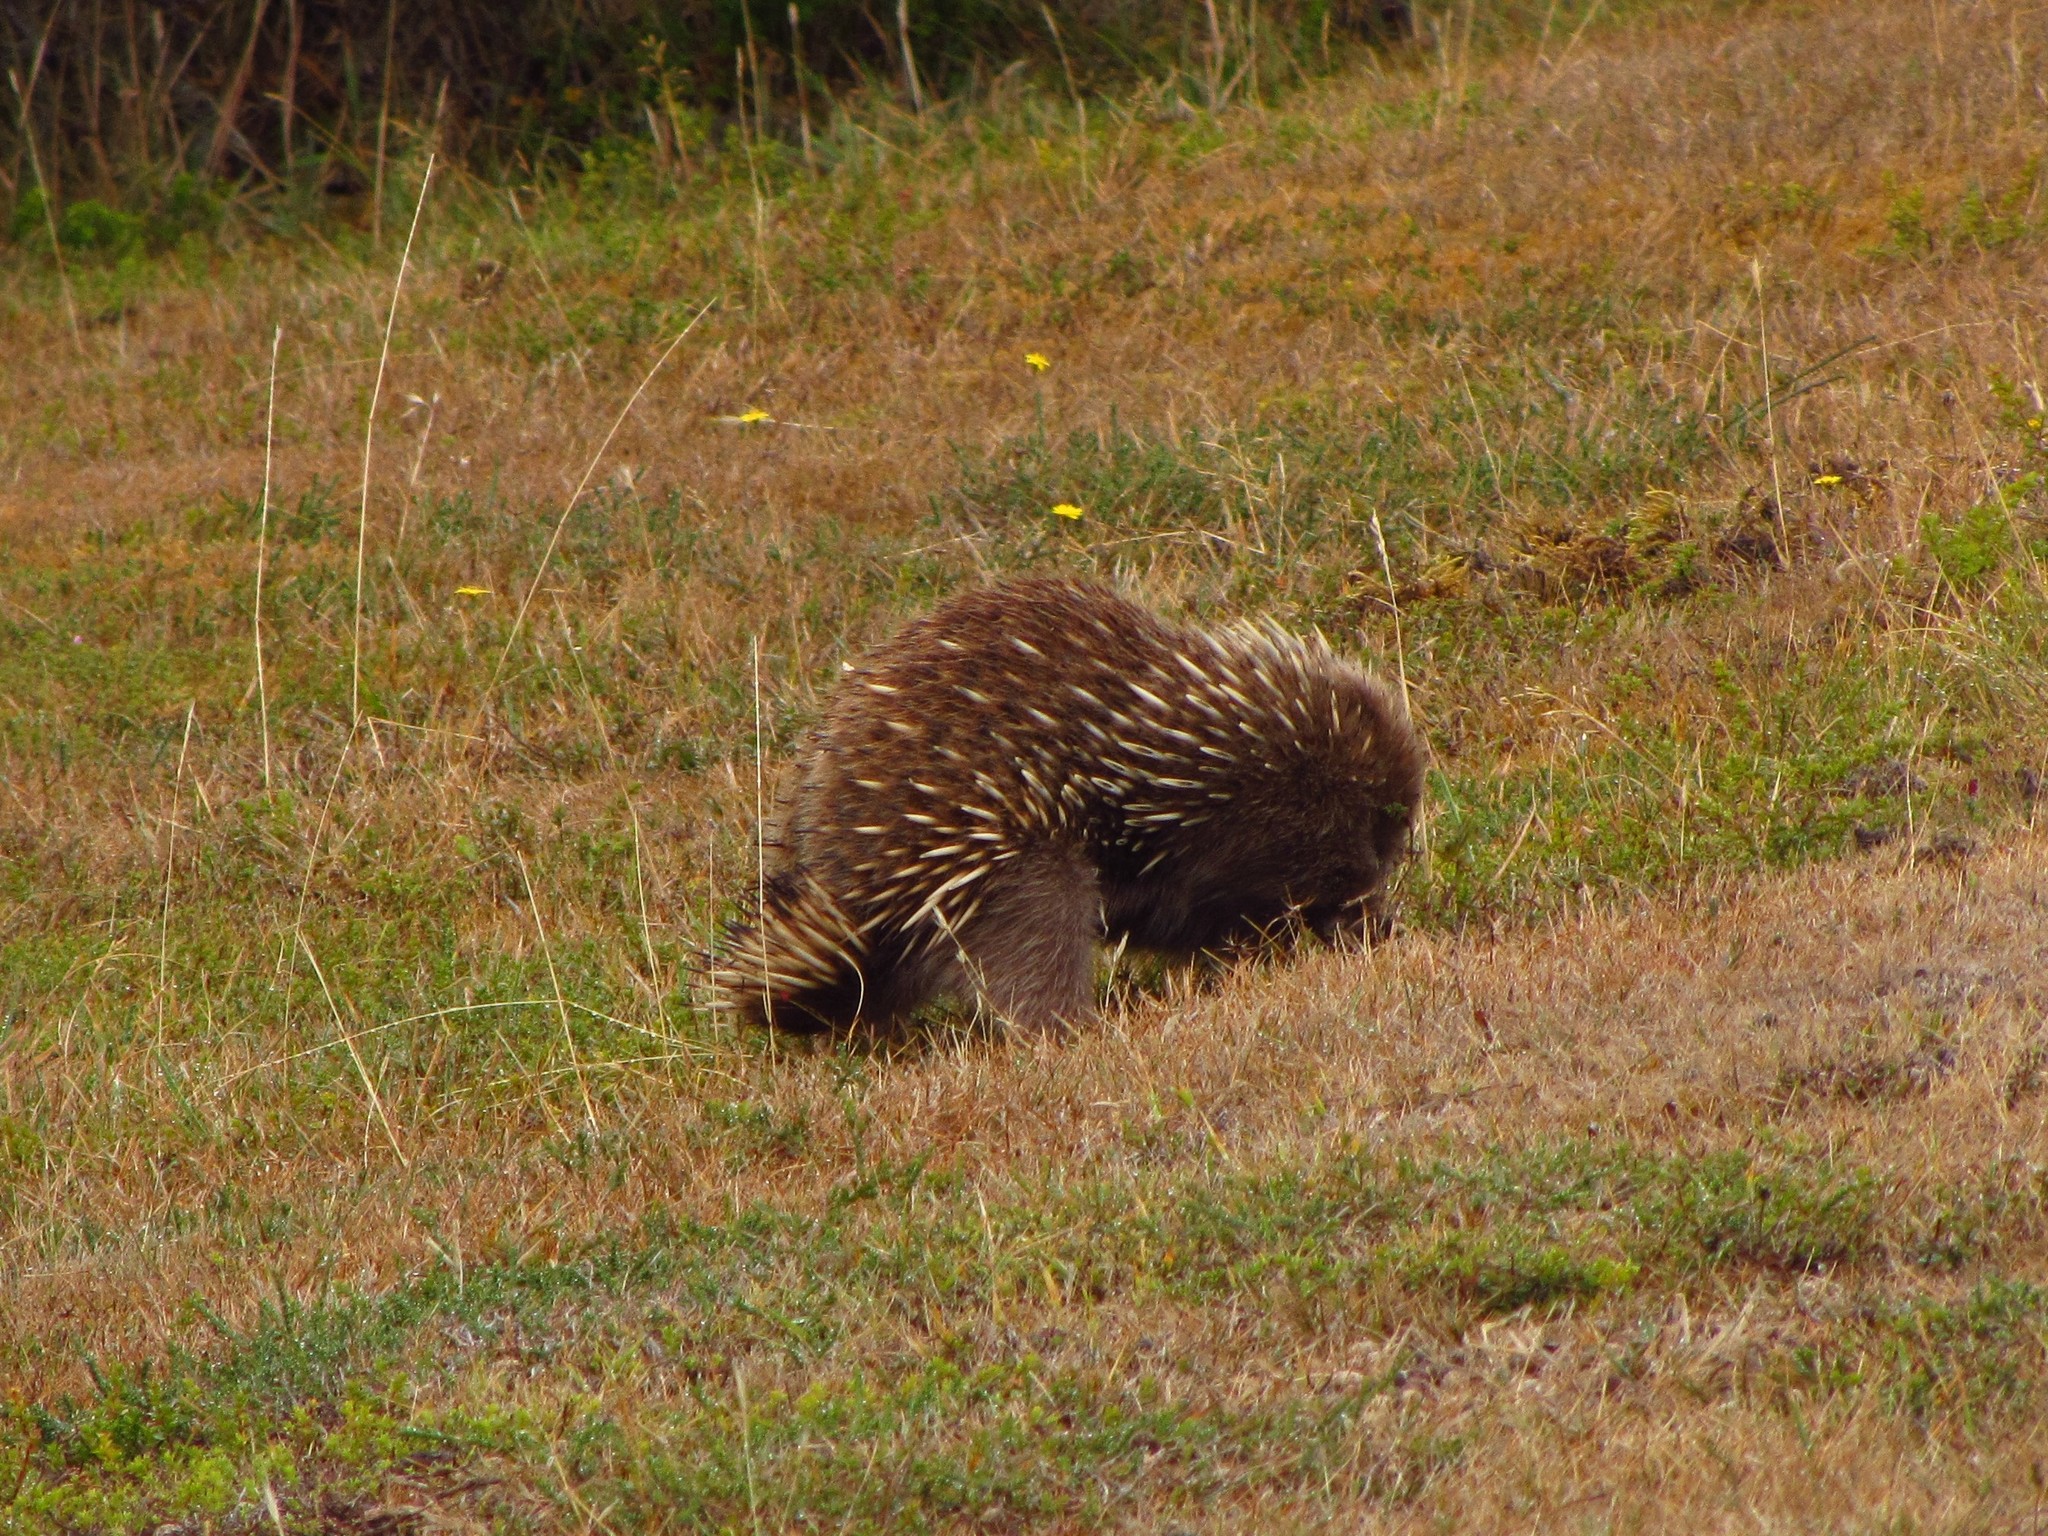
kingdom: Animalia
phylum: Chordata
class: Mammalia
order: Monotremata
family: Tachyglossidae
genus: Tachyglossus
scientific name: Tachyglossus aculeatus
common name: Short-beaked echidna
